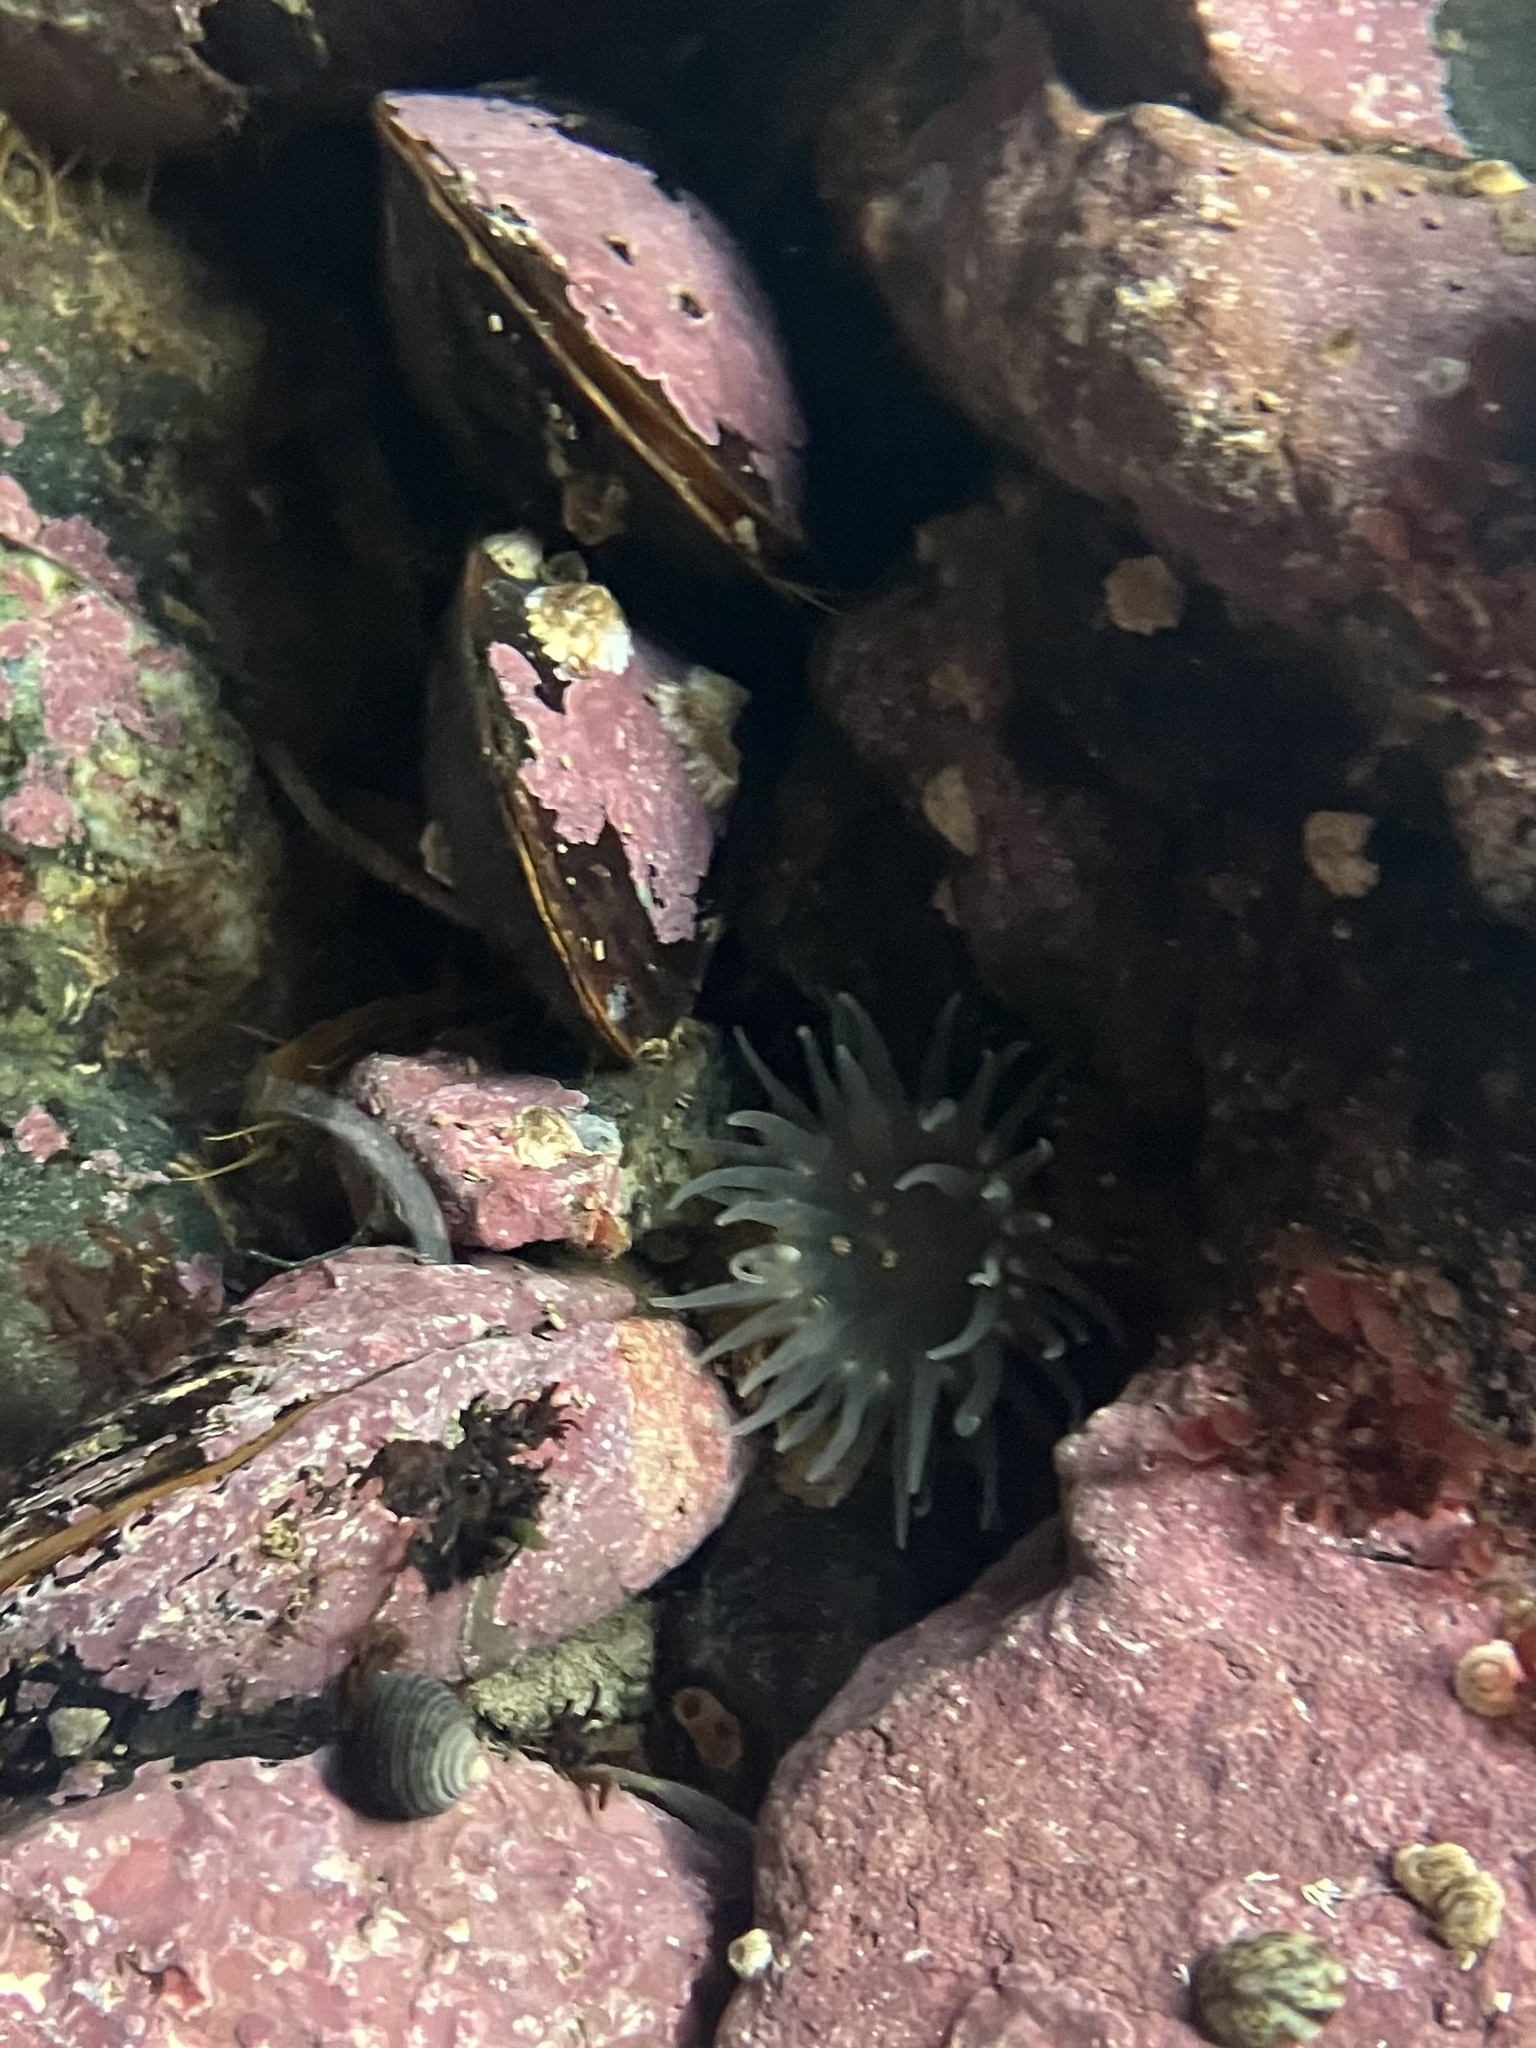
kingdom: Animalia
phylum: Cnidaria
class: Anthozoa
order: Actiniaria
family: Actiniidae
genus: Aulactinia
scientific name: Aulactinia stella
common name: Silver-spotted sea anemone
